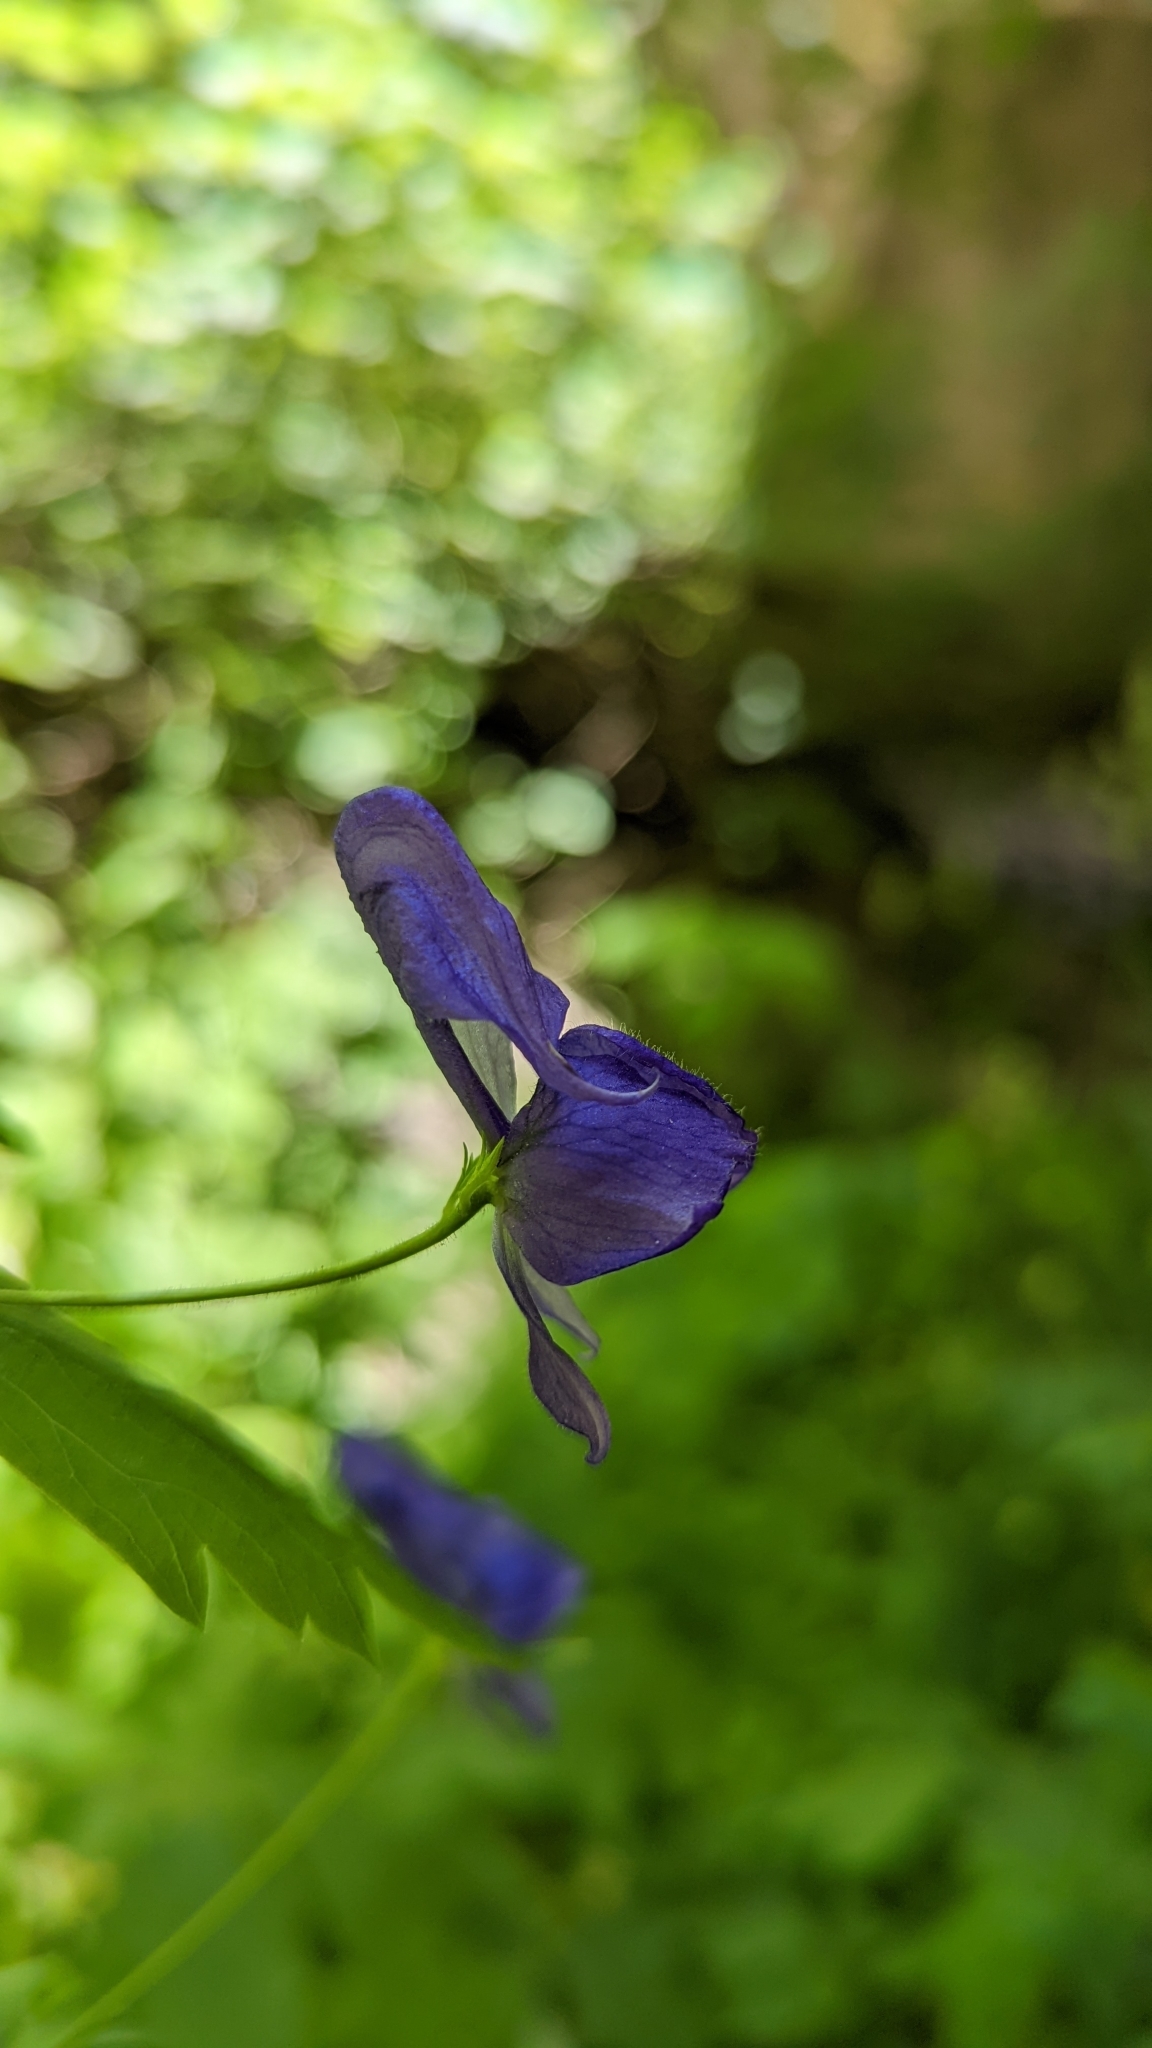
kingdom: Plantae
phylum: Tracheophyta
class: Magnoliopsida
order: Ranunculales
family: Ranunculaceae
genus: Aconitum
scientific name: Aconitum columbianum
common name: Columbia aconite
